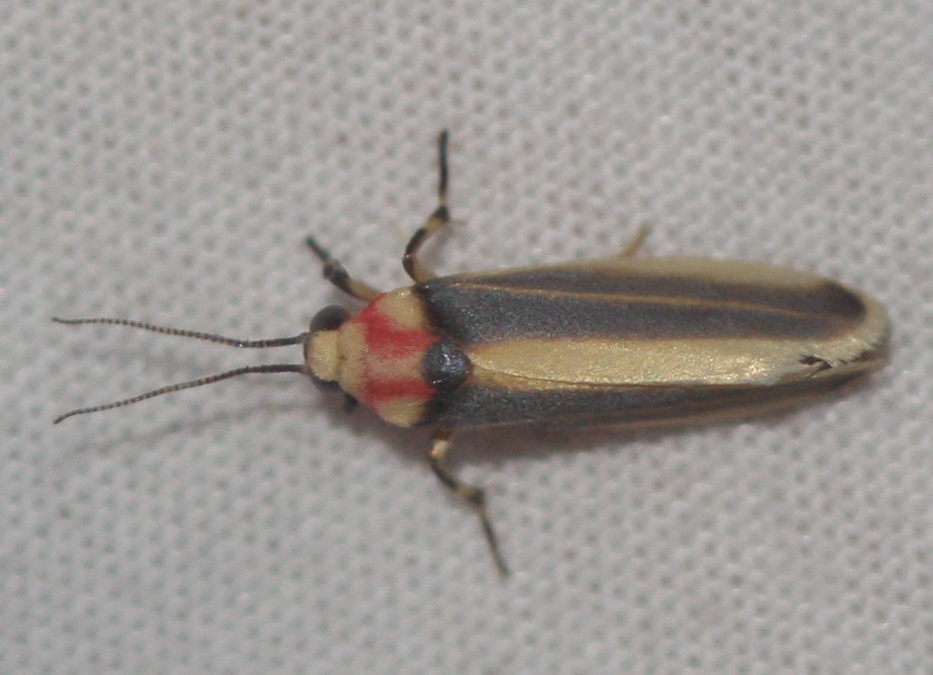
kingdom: Animalia
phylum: Arthropoda
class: Insecta
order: Lepidoptera
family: Erebidae
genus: Rhabdatomis
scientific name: Rhabdatomis cora
